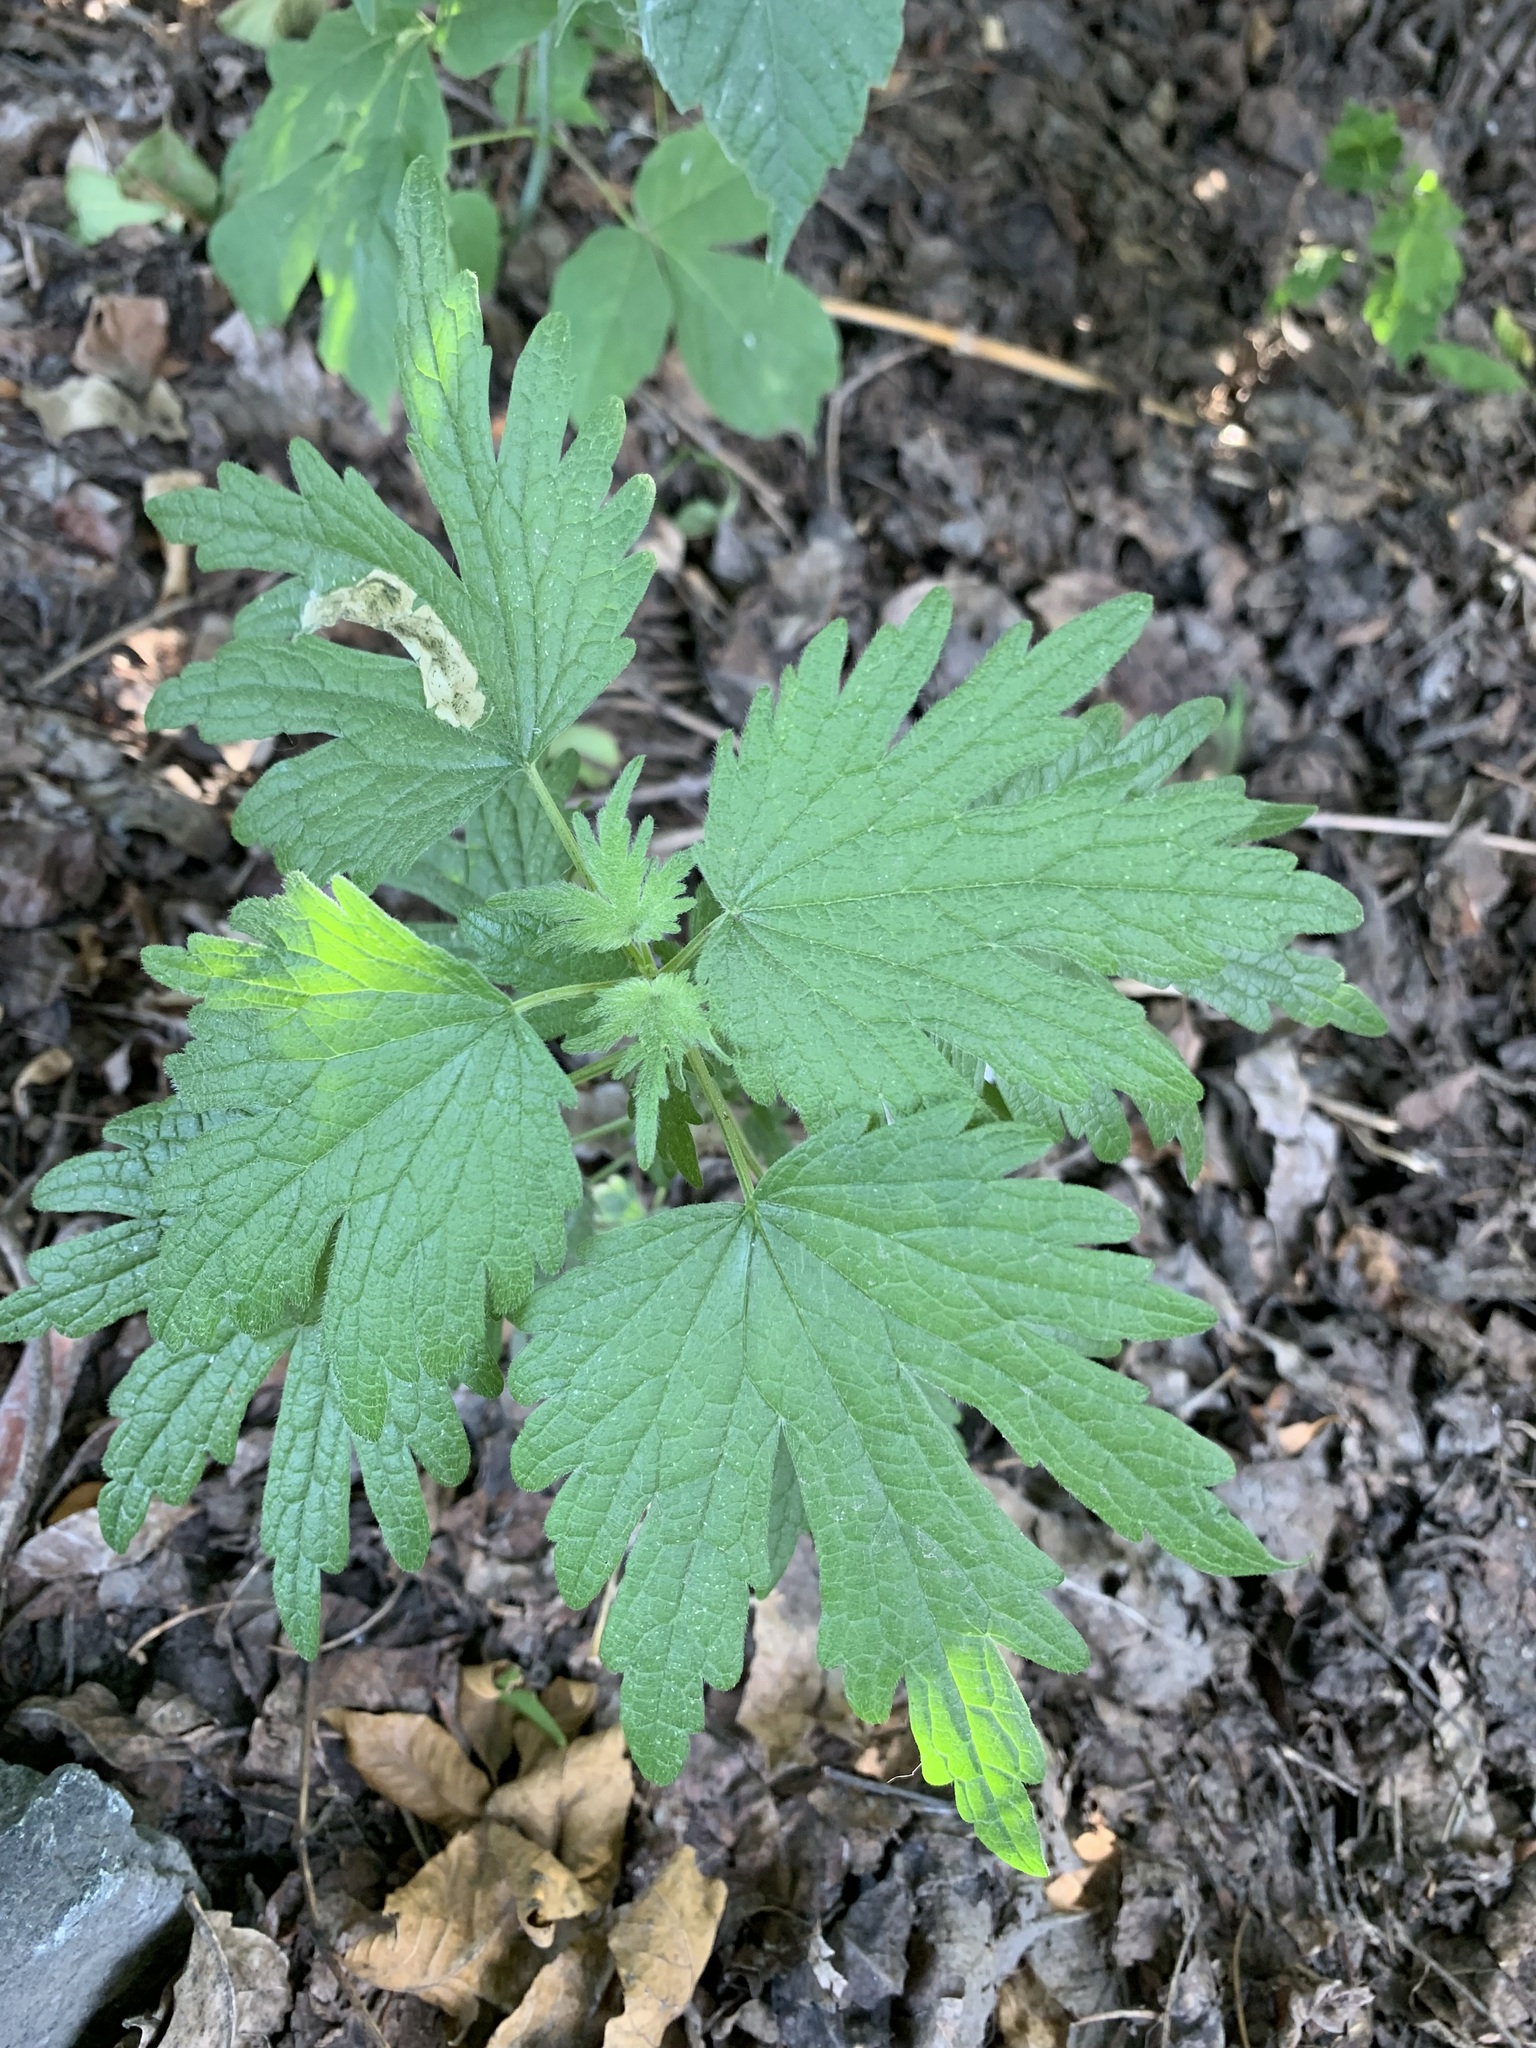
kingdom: Plantae
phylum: Tracheophyta
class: Magnoliopsida
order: Lamiales
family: Lamiaceae
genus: Leonurus
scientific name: Leonurus quinquelobatus
